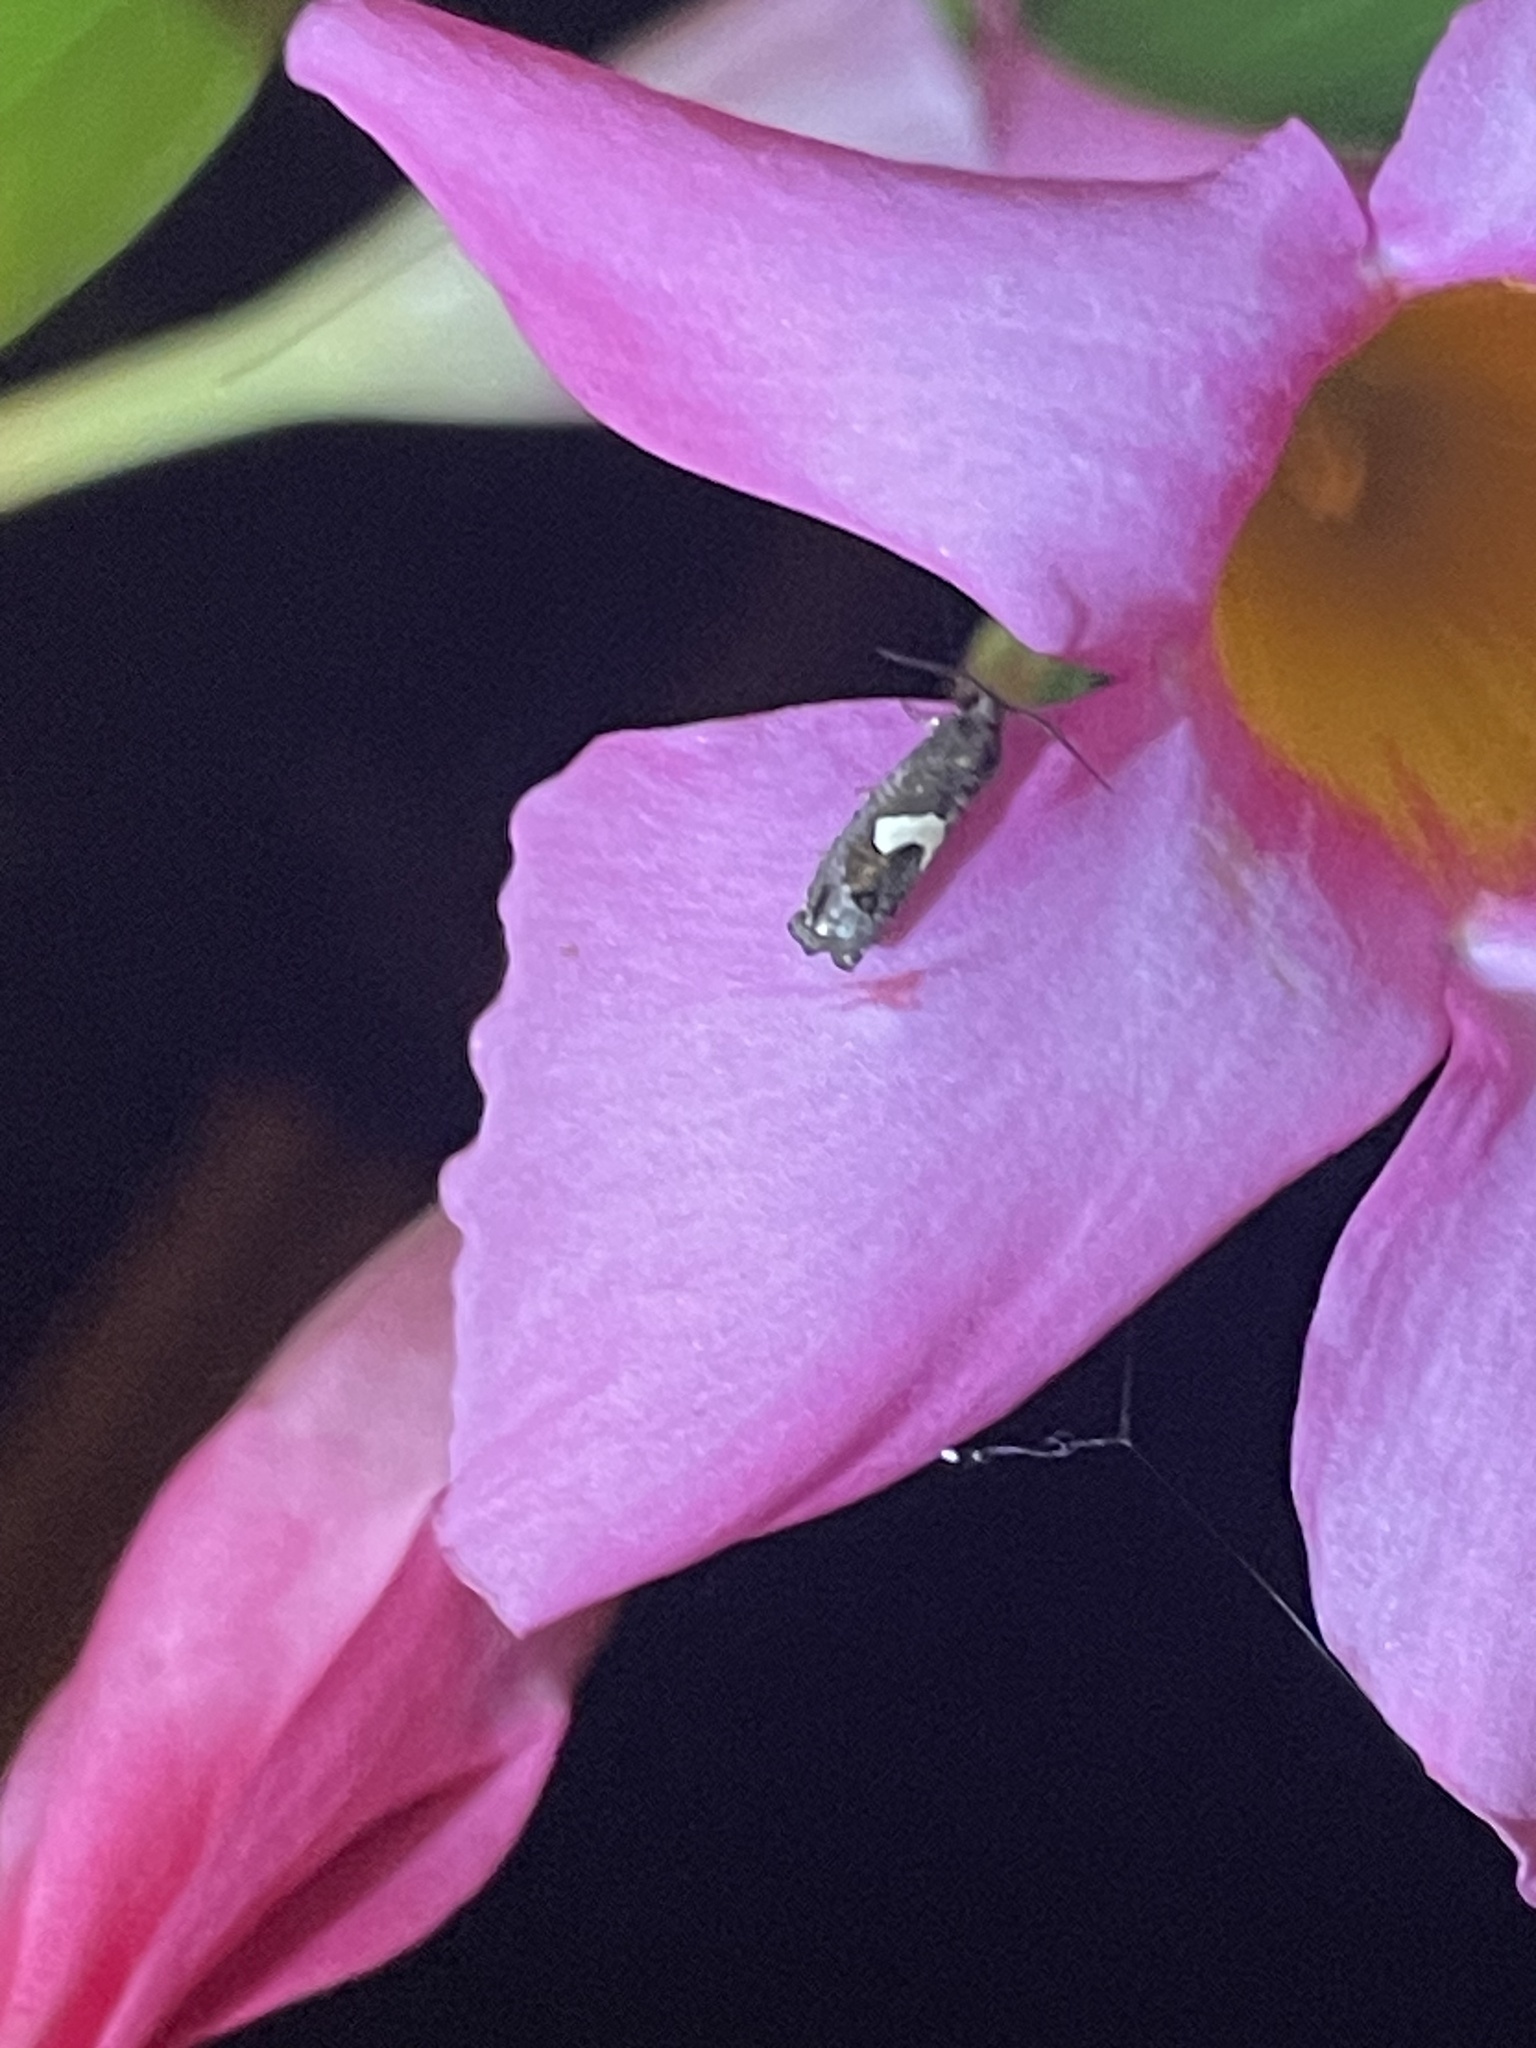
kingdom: Animalia
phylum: Arthropoda
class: Insecta
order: Lepidoptera
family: Tortricidae
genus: Epiblema
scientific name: Epiblema otiosana
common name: Bidens borer moth
